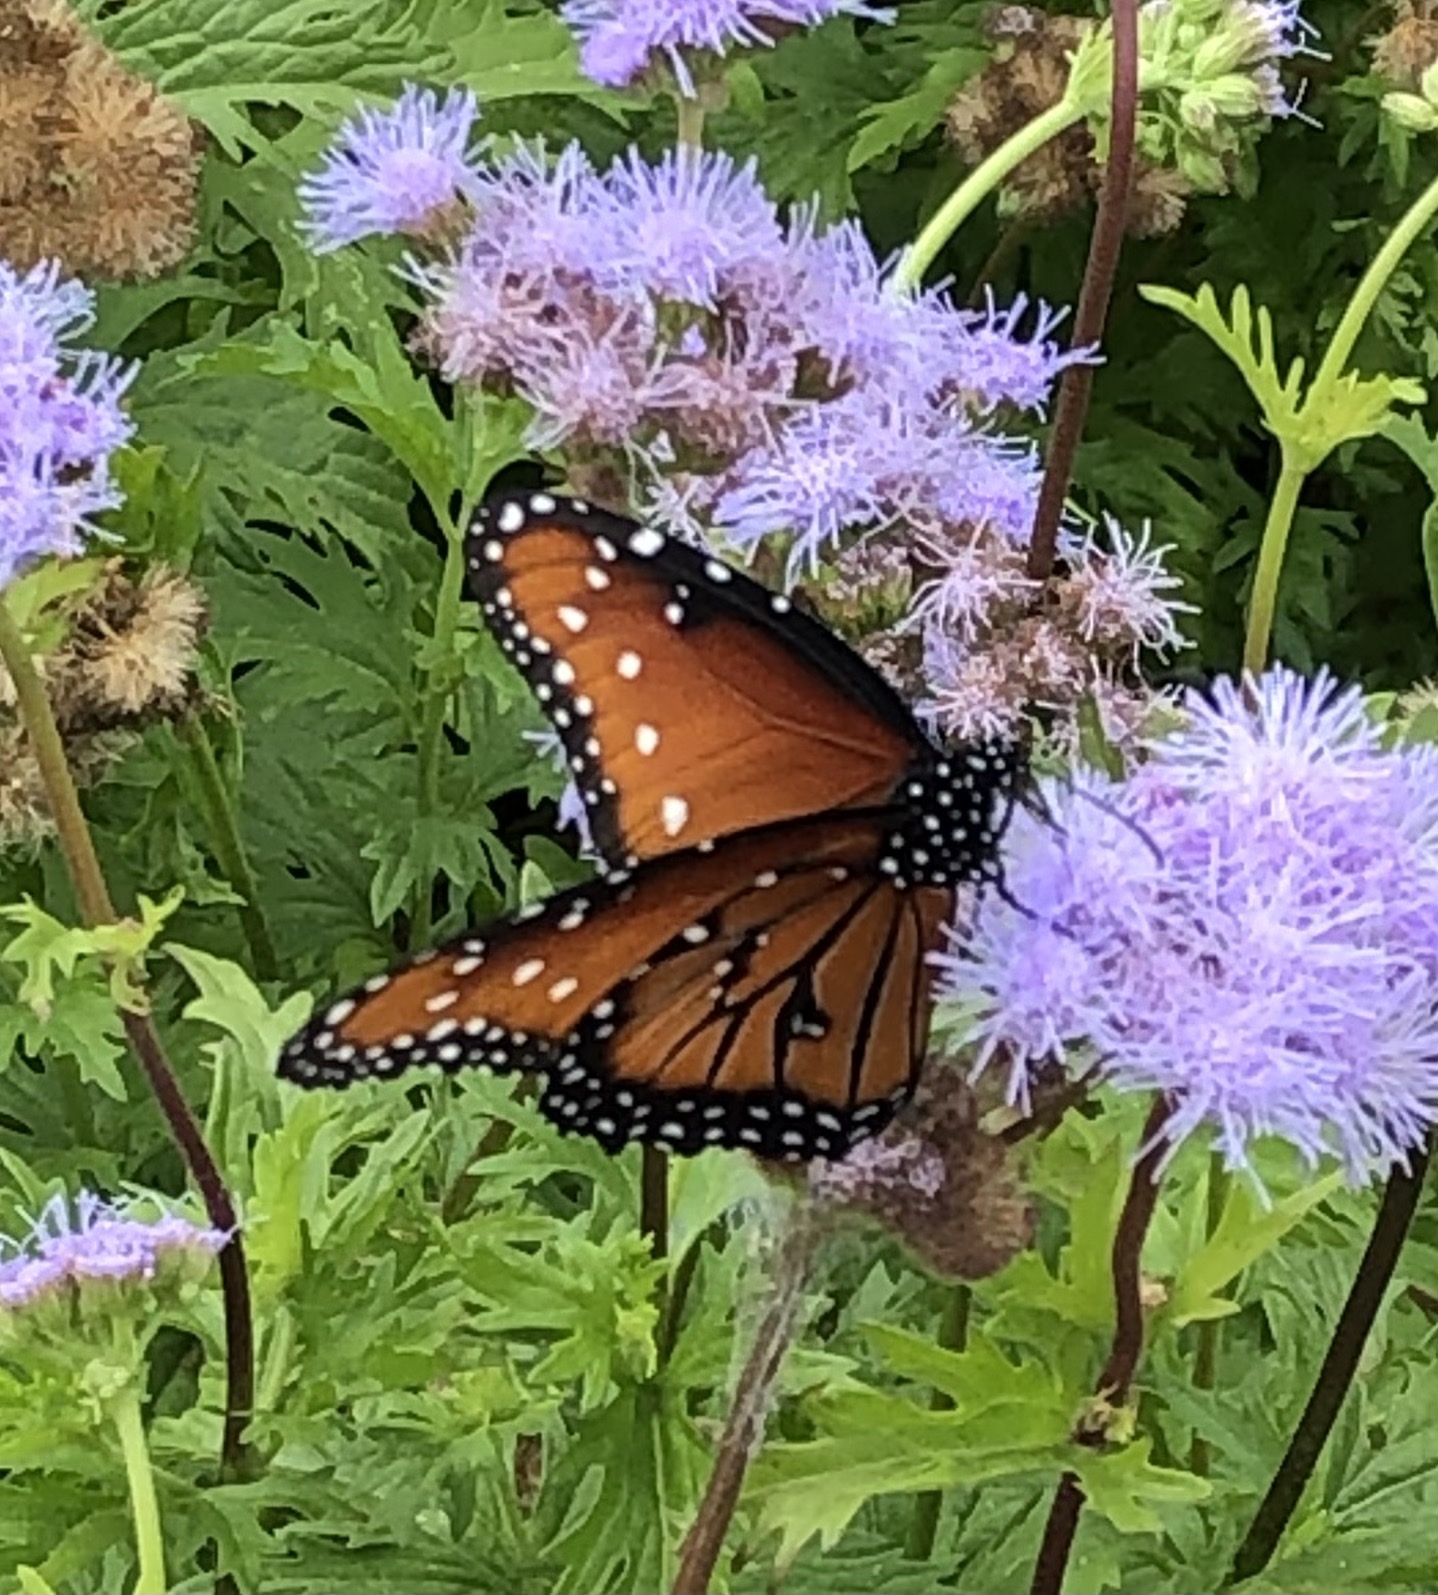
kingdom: Animalia
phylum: Arthropoda
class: Insecta
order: Lepidoptera
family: Nymphalidae
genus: Danaus
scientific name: Danaus gilippus
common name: Queen
